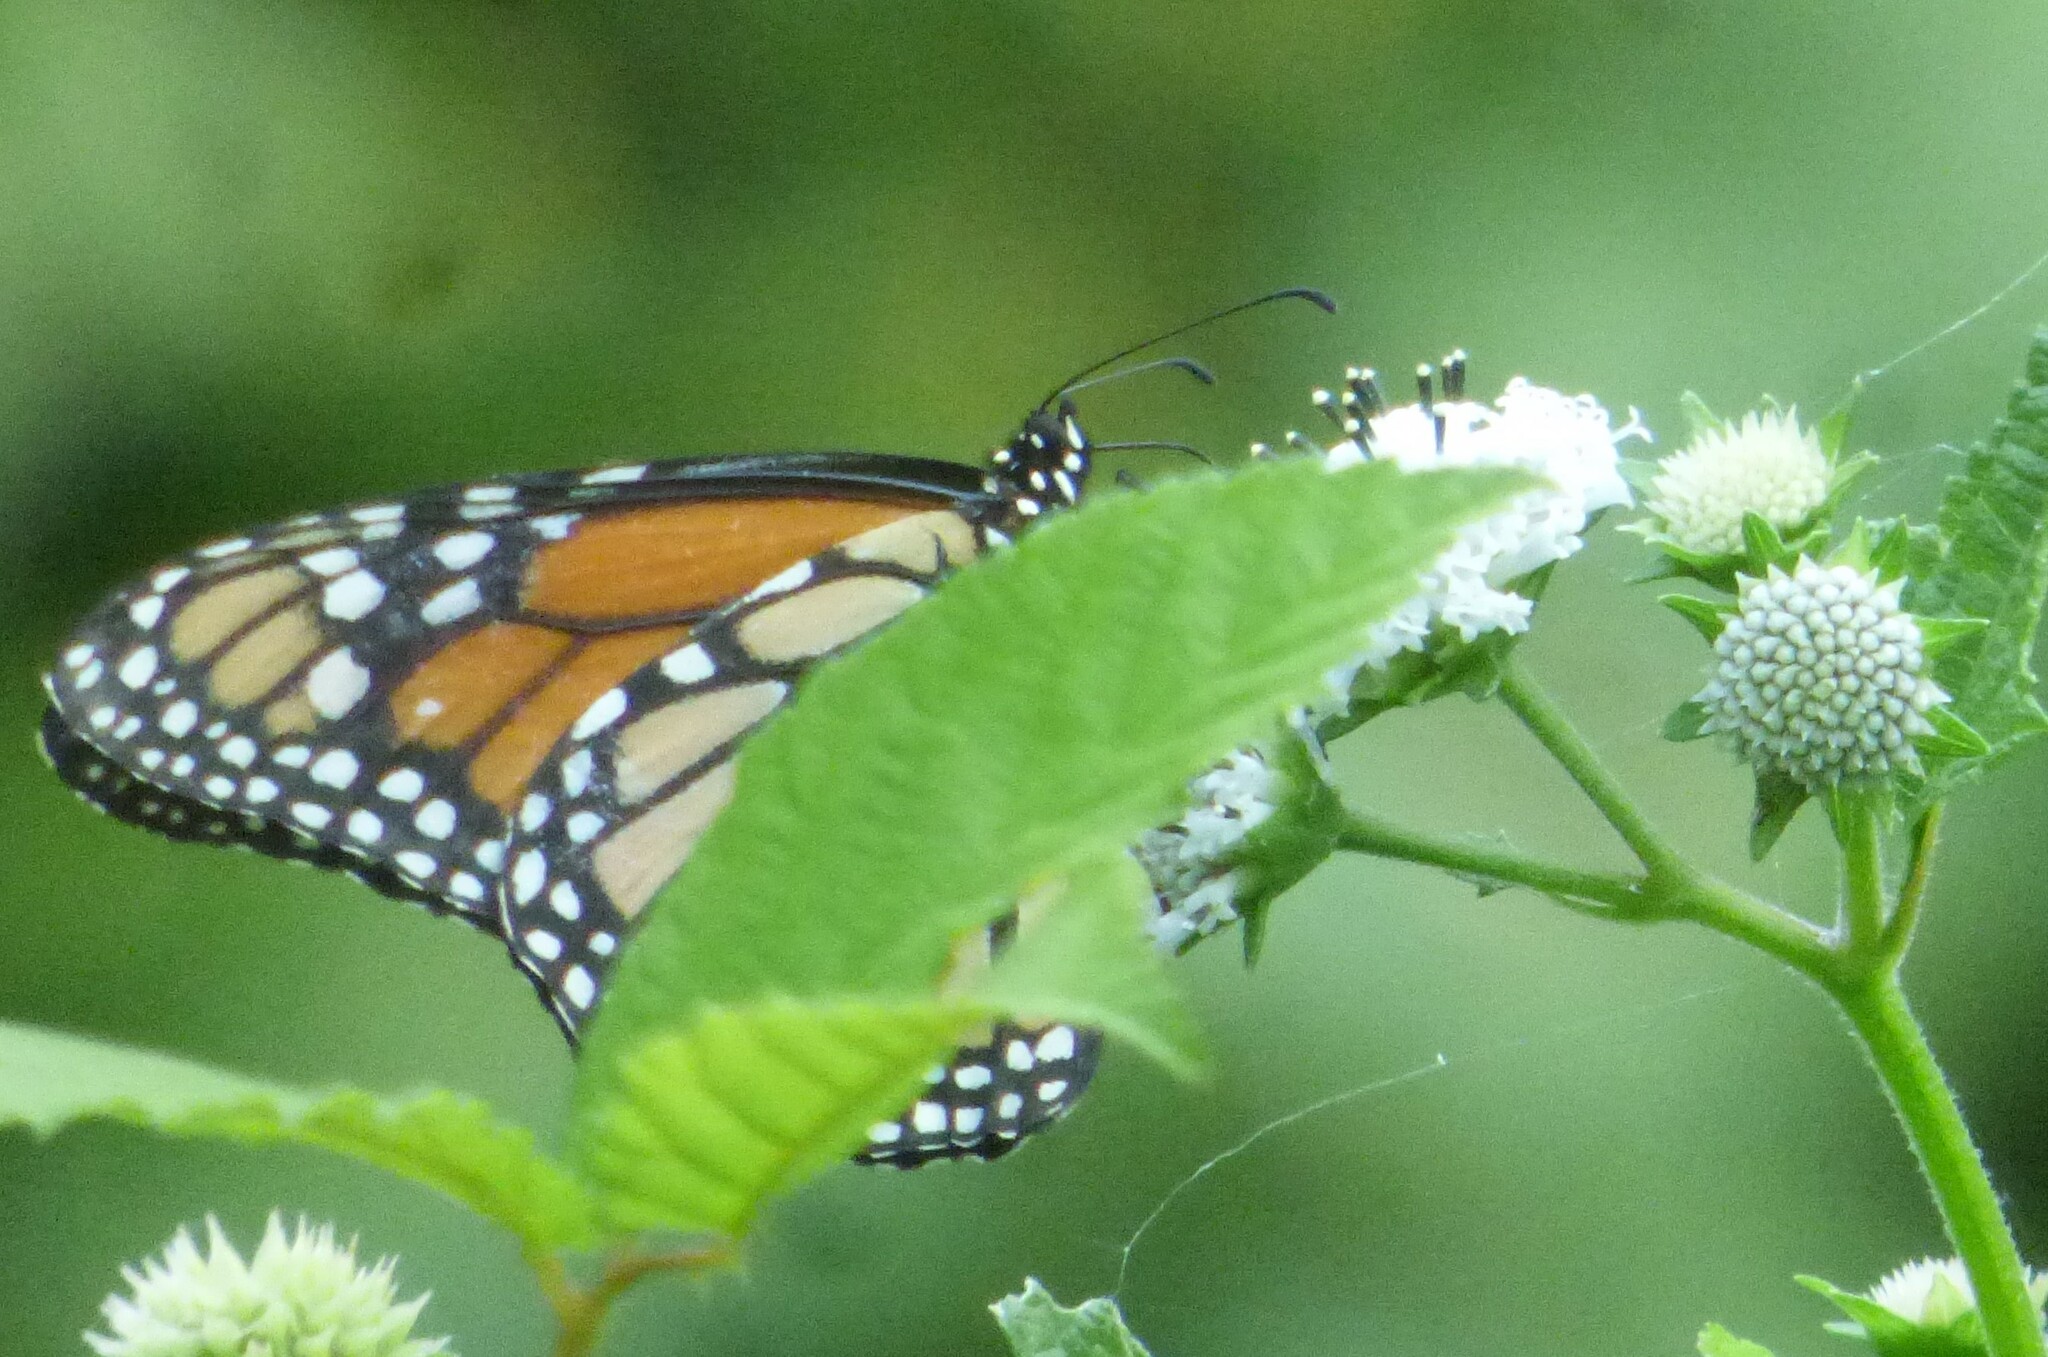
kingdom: Animalia
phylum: Arthropoda
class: Insecta
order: Lepidoptera
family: Nymphalidae
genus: Danaus
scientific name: Danaus plexippus
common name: Monarch
